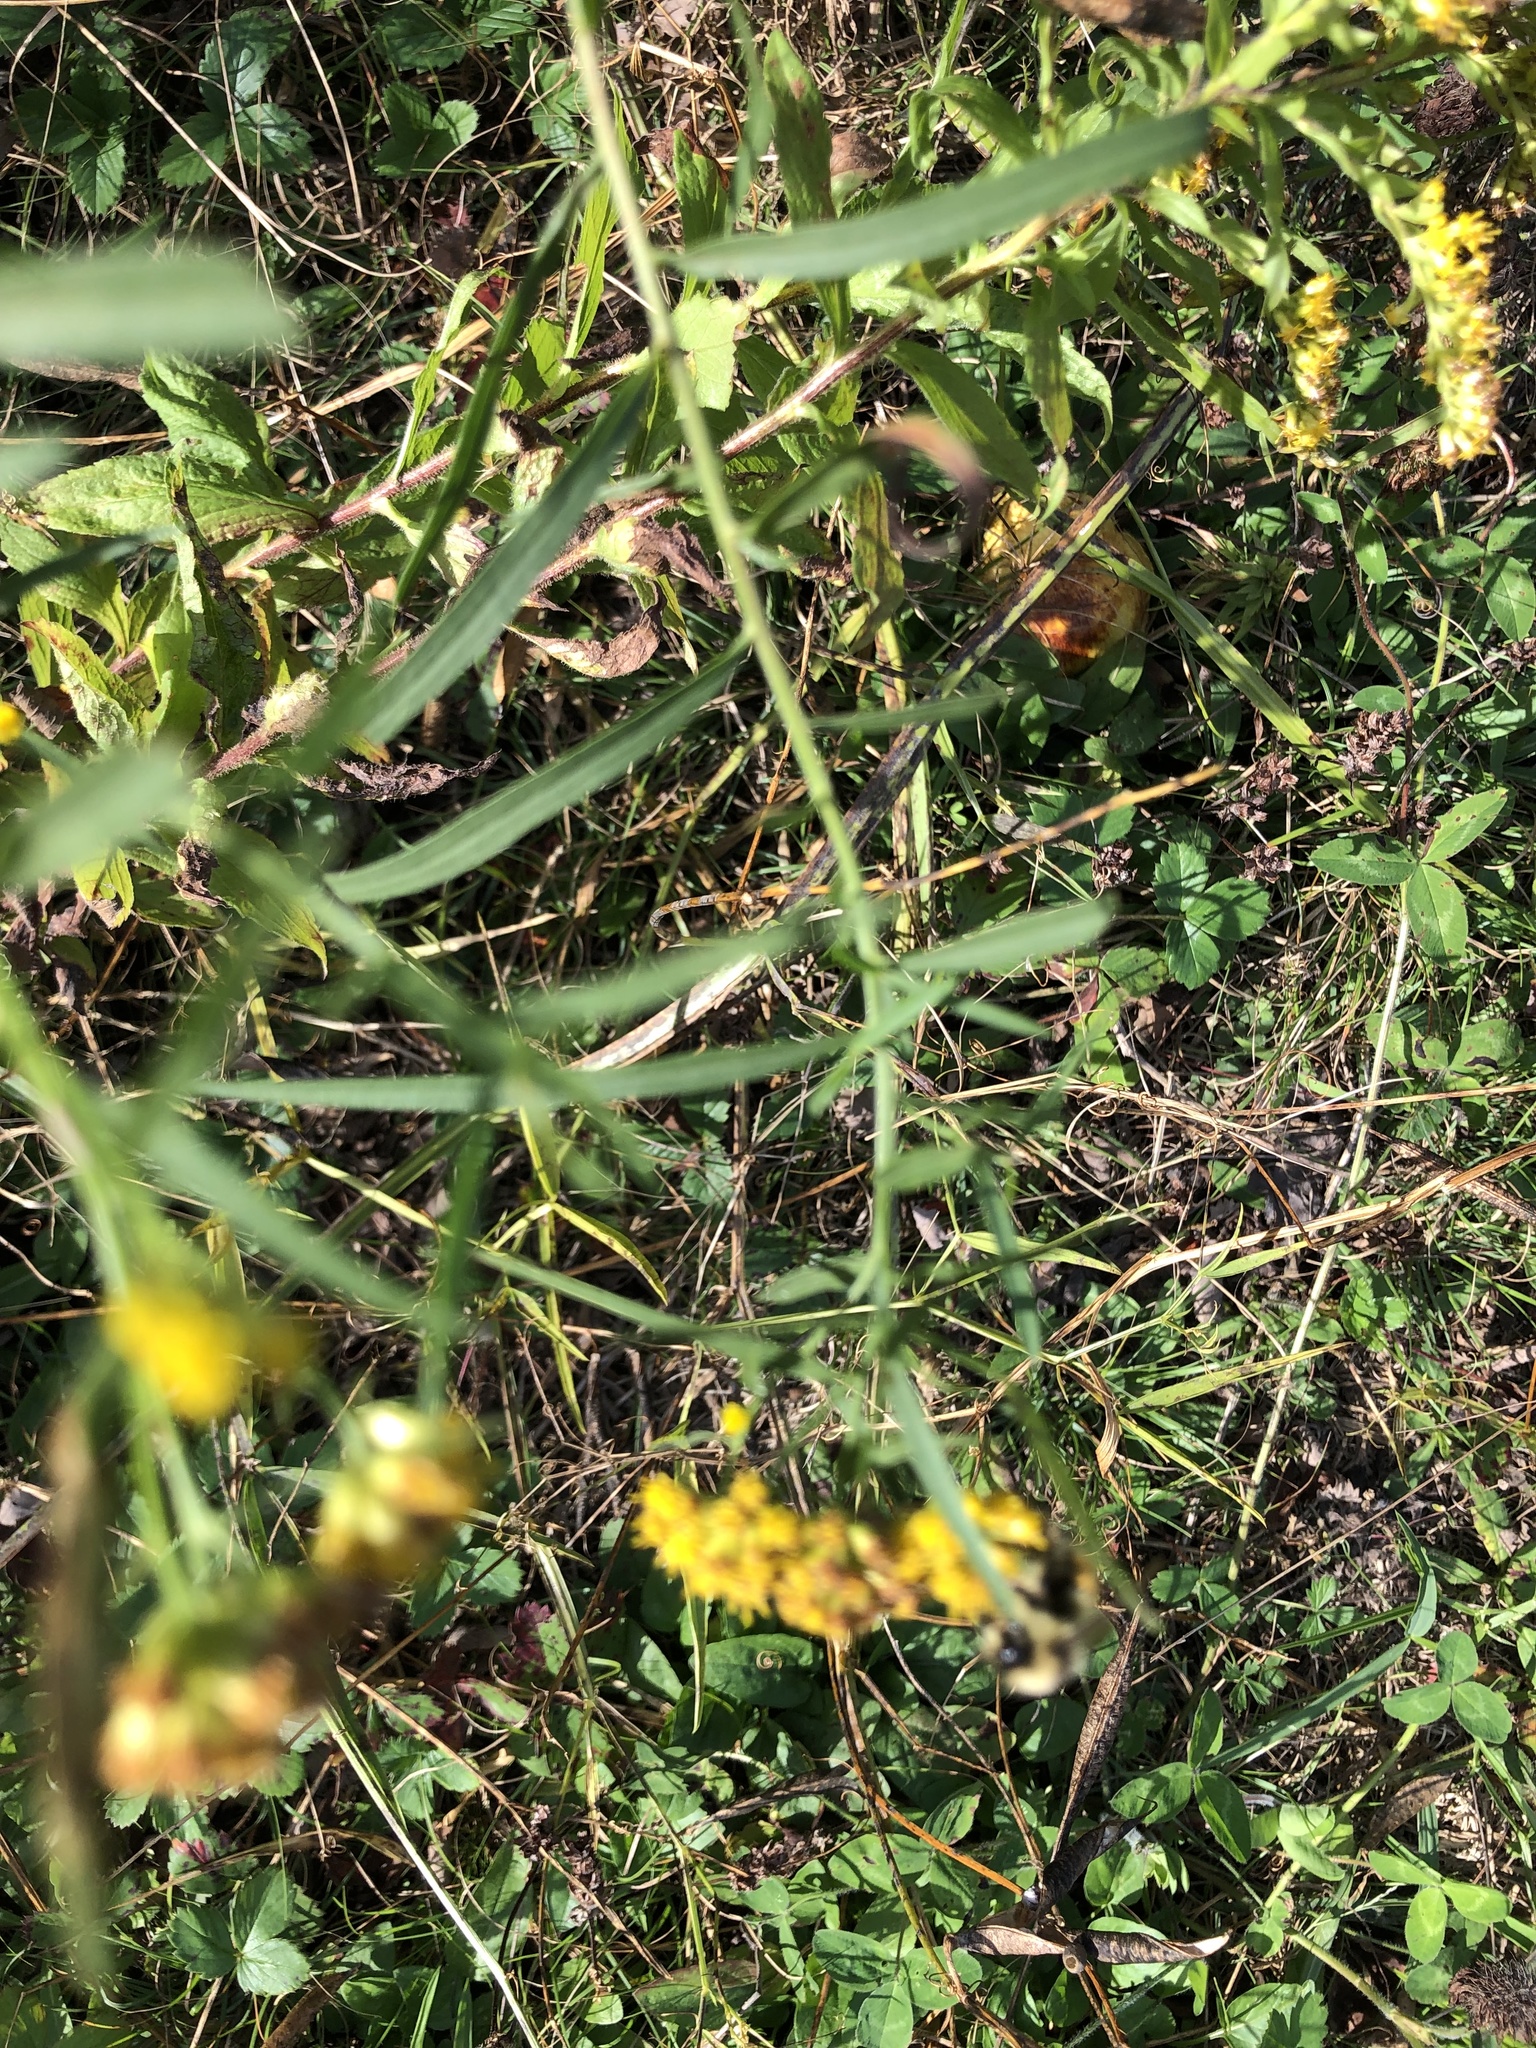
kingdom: Plantae
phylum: Tracheophyta
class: Magnoliopsida
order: Asterales
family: Asteraceae
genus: Euthamia
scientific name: Euthamia graminifolia
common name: Common goldentop
